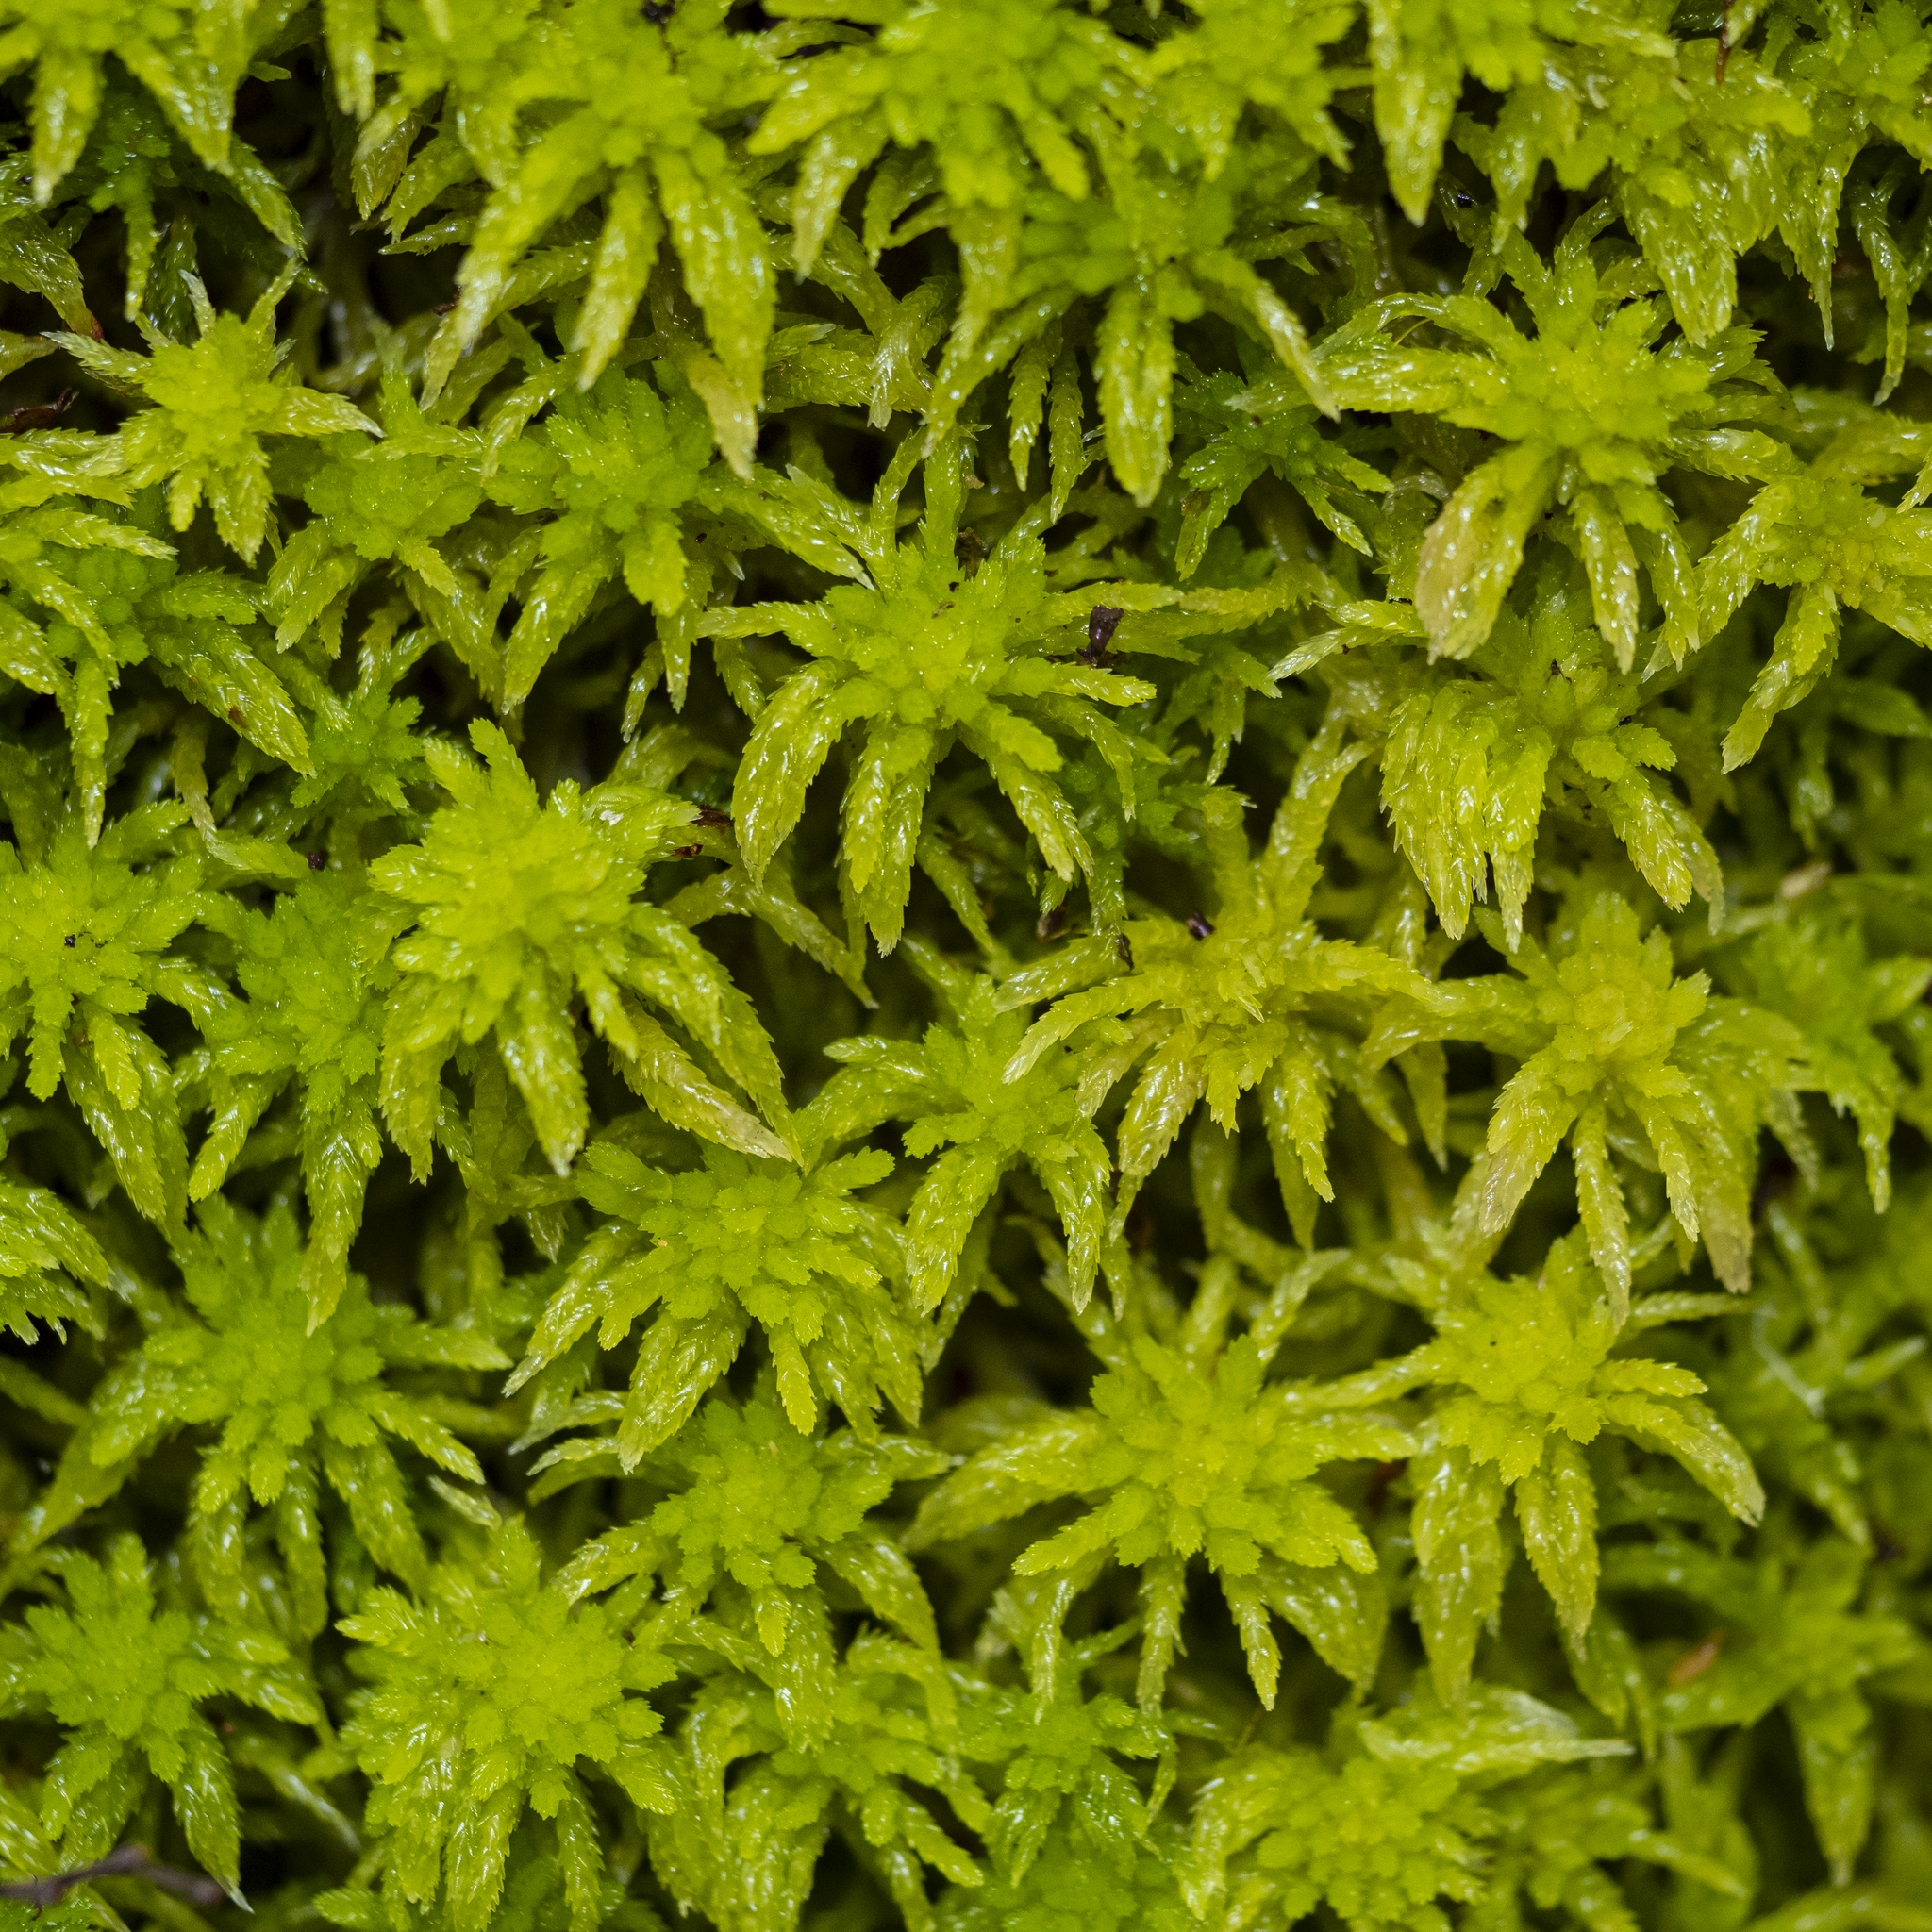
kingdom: Plantae
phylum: Bryophyta
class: Sphagnopsida
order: Sphagnales
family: Sphagnaceae
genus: Sphagnum
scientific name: Sphagnum novozelandicum
